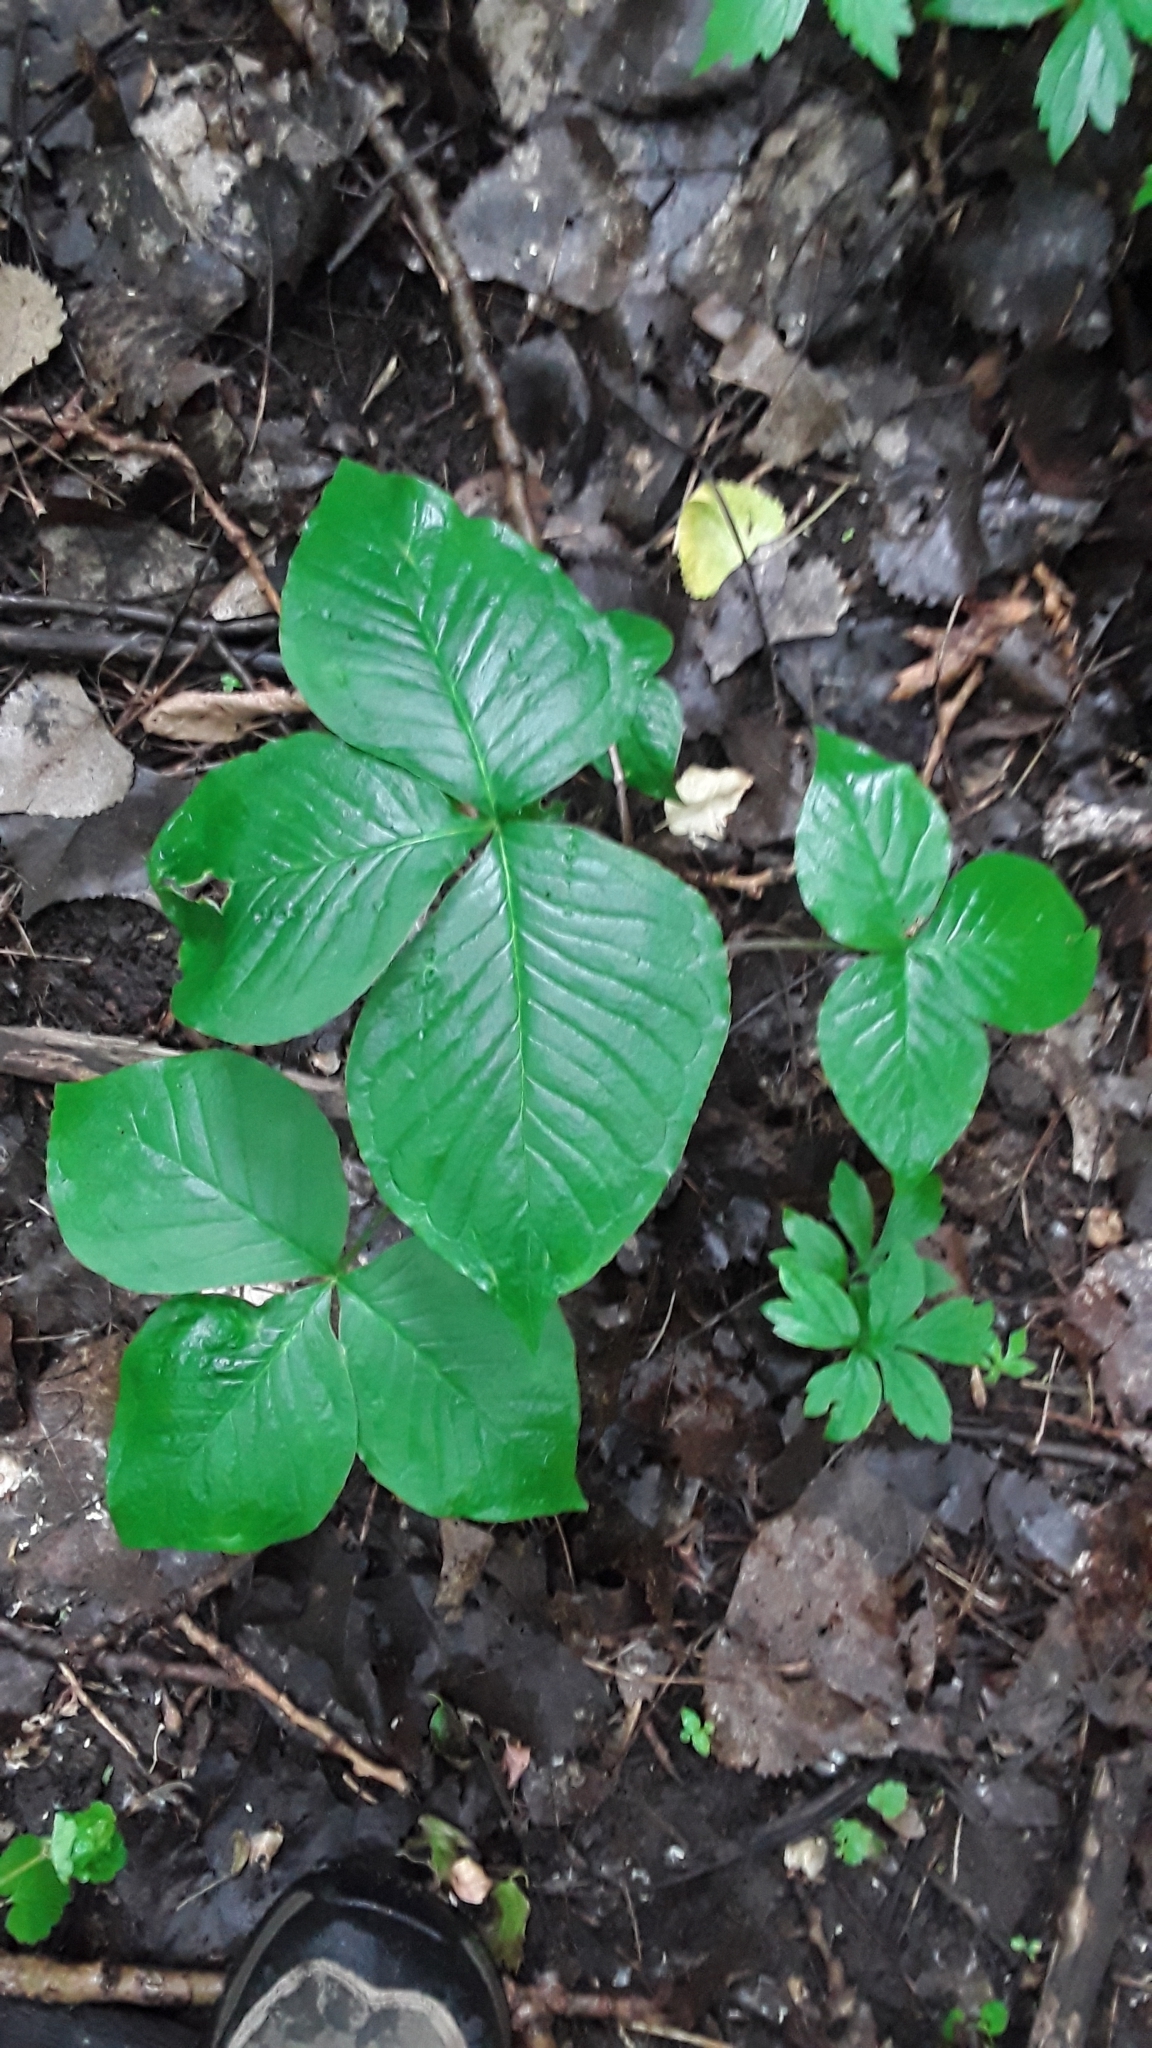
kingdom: Plantae
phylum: Tracheophyta
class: Liliopsida
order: Alismatales
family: Araceae
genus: Arisaema
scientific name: Arisaema triphyllum
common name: Jack-in-the-pulpit
